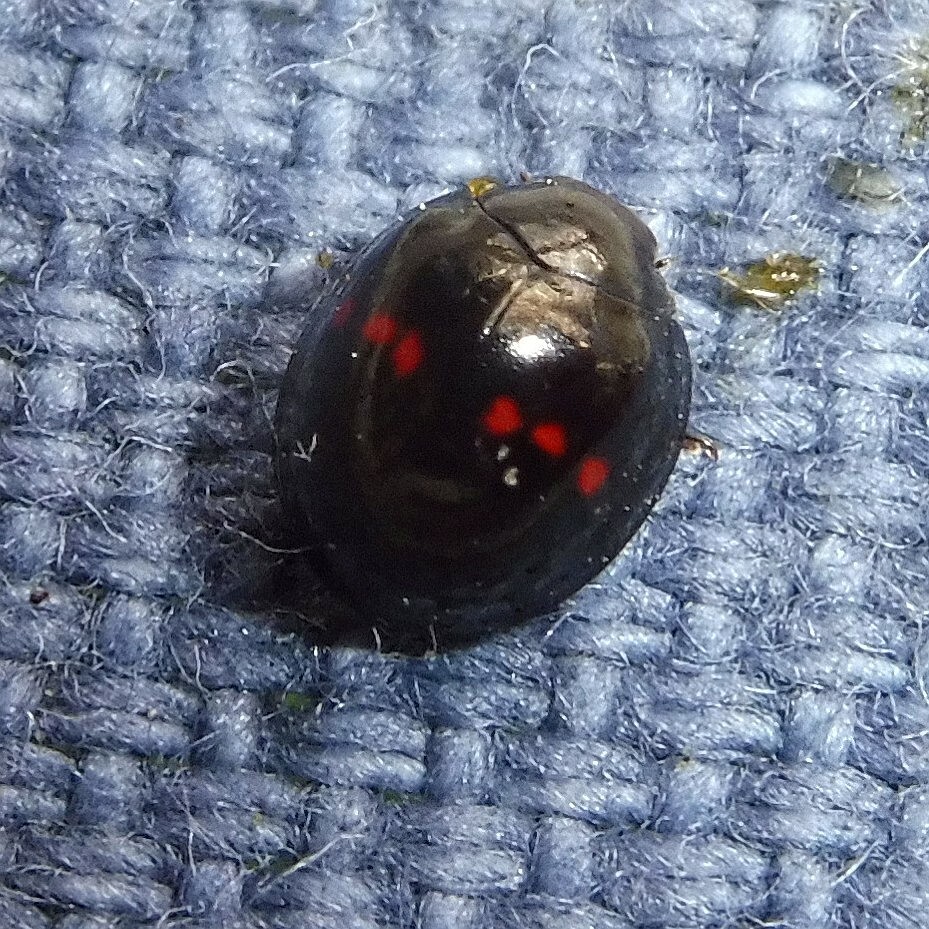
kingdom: Animalia
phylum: Arthropoda
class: Insecta
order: Coleoptera
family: Coccinellidae
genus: Chilocorus
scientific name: Chilocorus bipustulatus
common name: Heather ladybird
